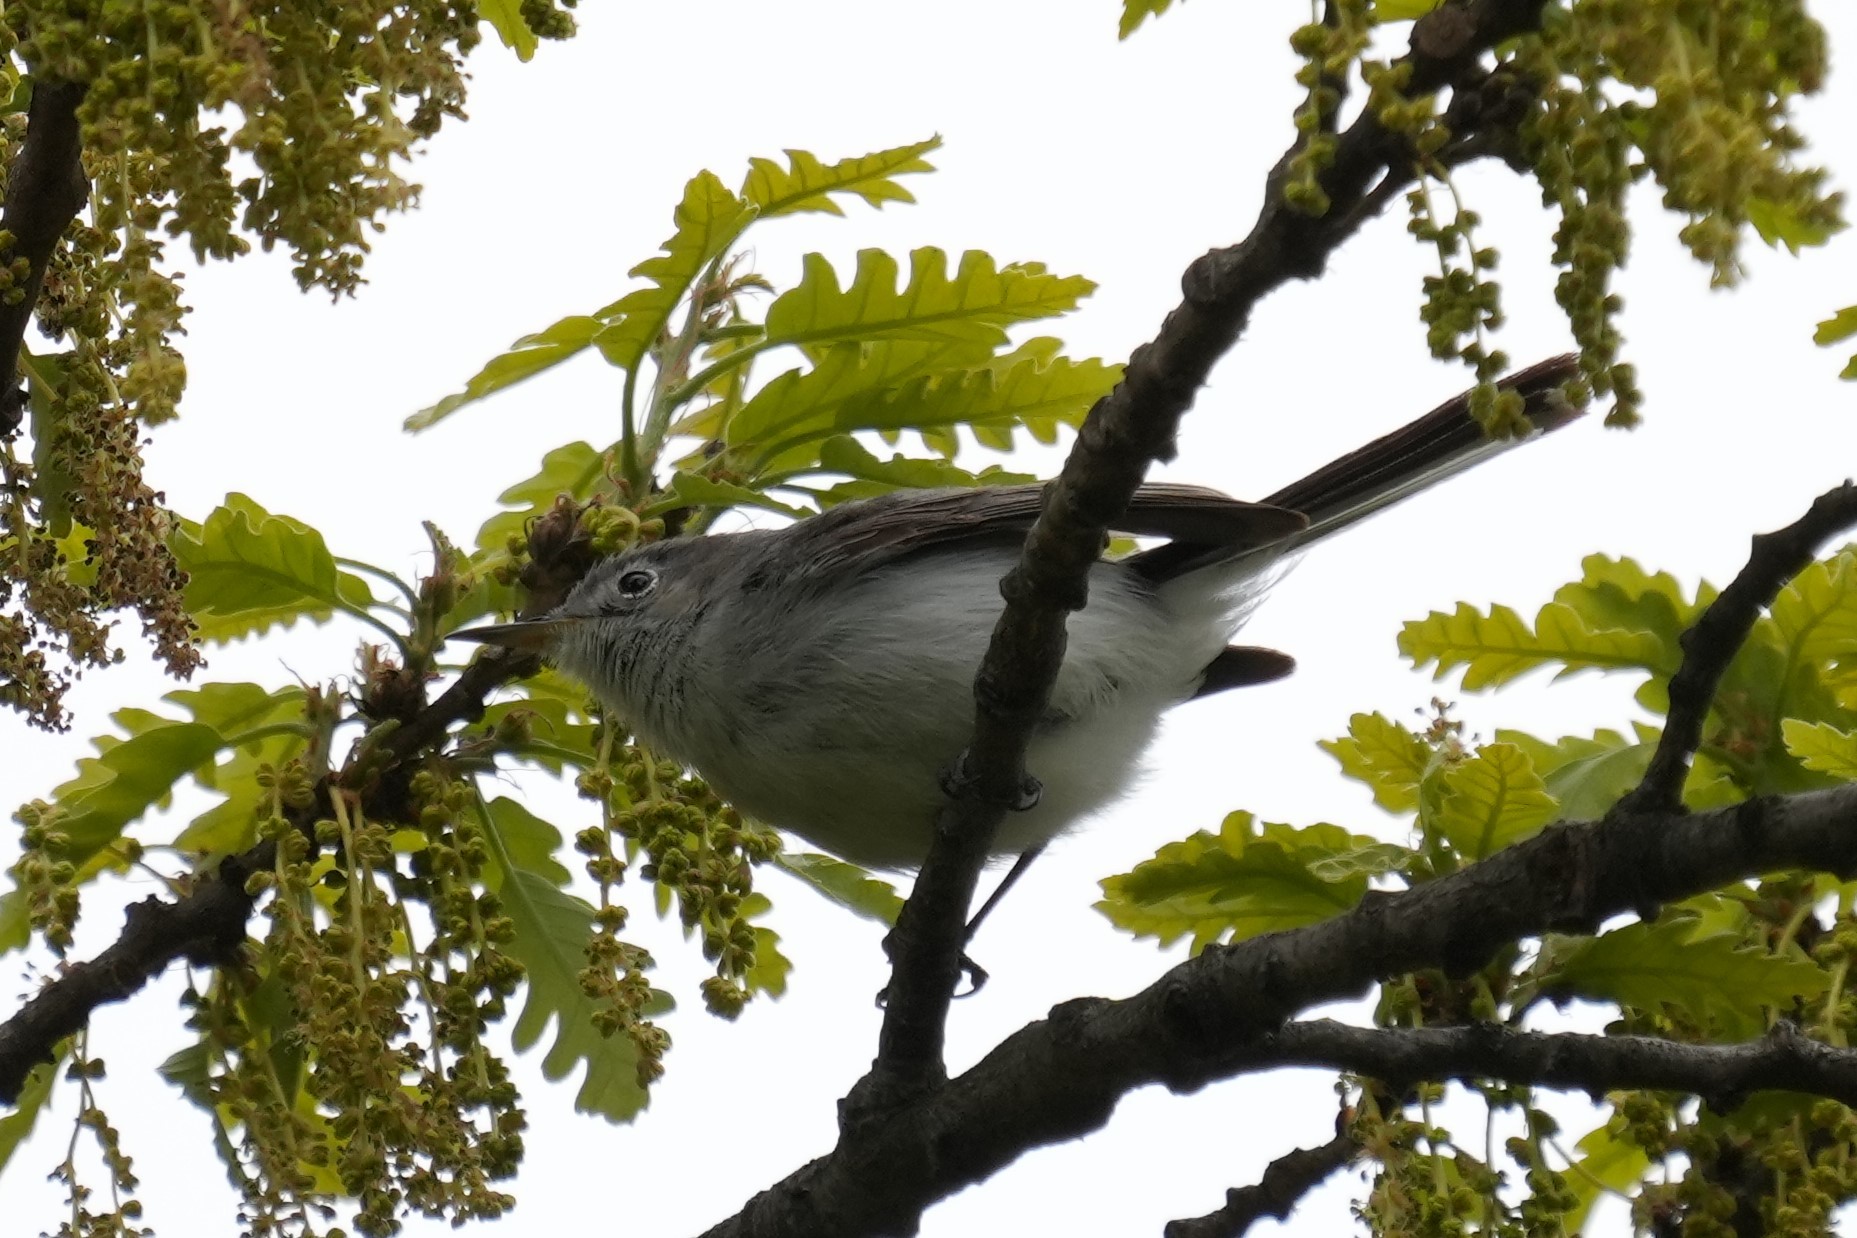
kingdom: Animalia
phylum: Chordata
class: Aves
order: Passeriformes
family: Polioptilidae
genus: Polioptila
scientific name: Polioptila caerulea
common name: Blue-gray gnatcatcher
